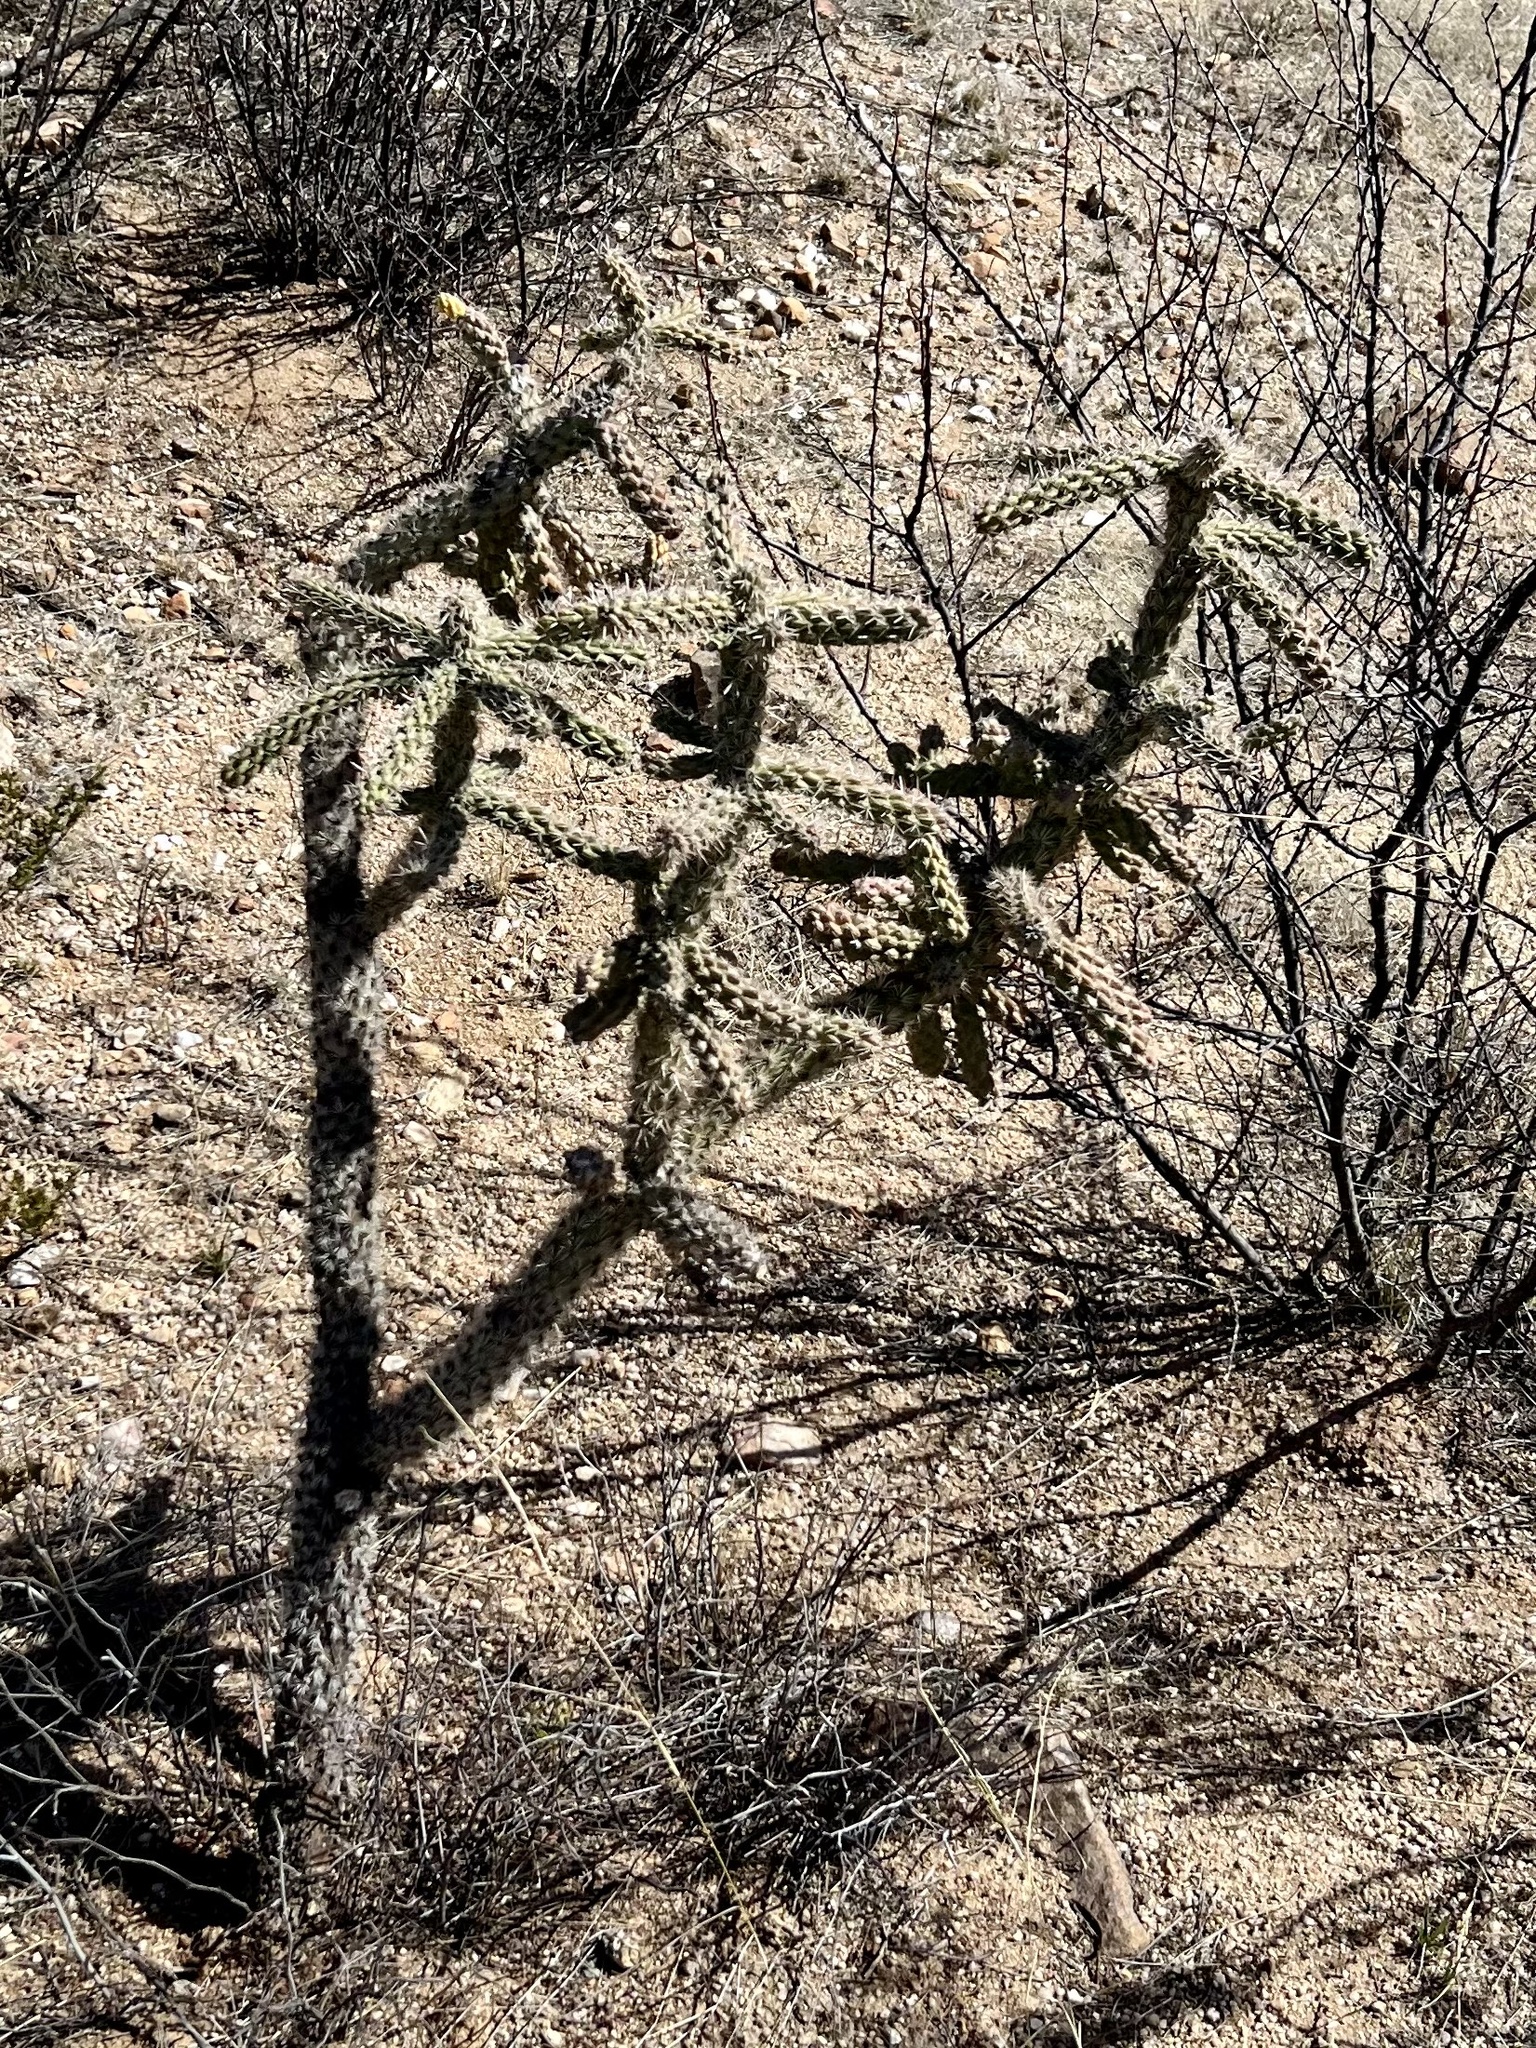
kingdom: Plantae
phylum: Tracheophyta
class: Magnoliopsida
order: Caryophyllales
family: Cactaceae
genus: Cylindropuntia
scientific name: Cylindropuntia imbricata
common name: Candelabrum cactus
